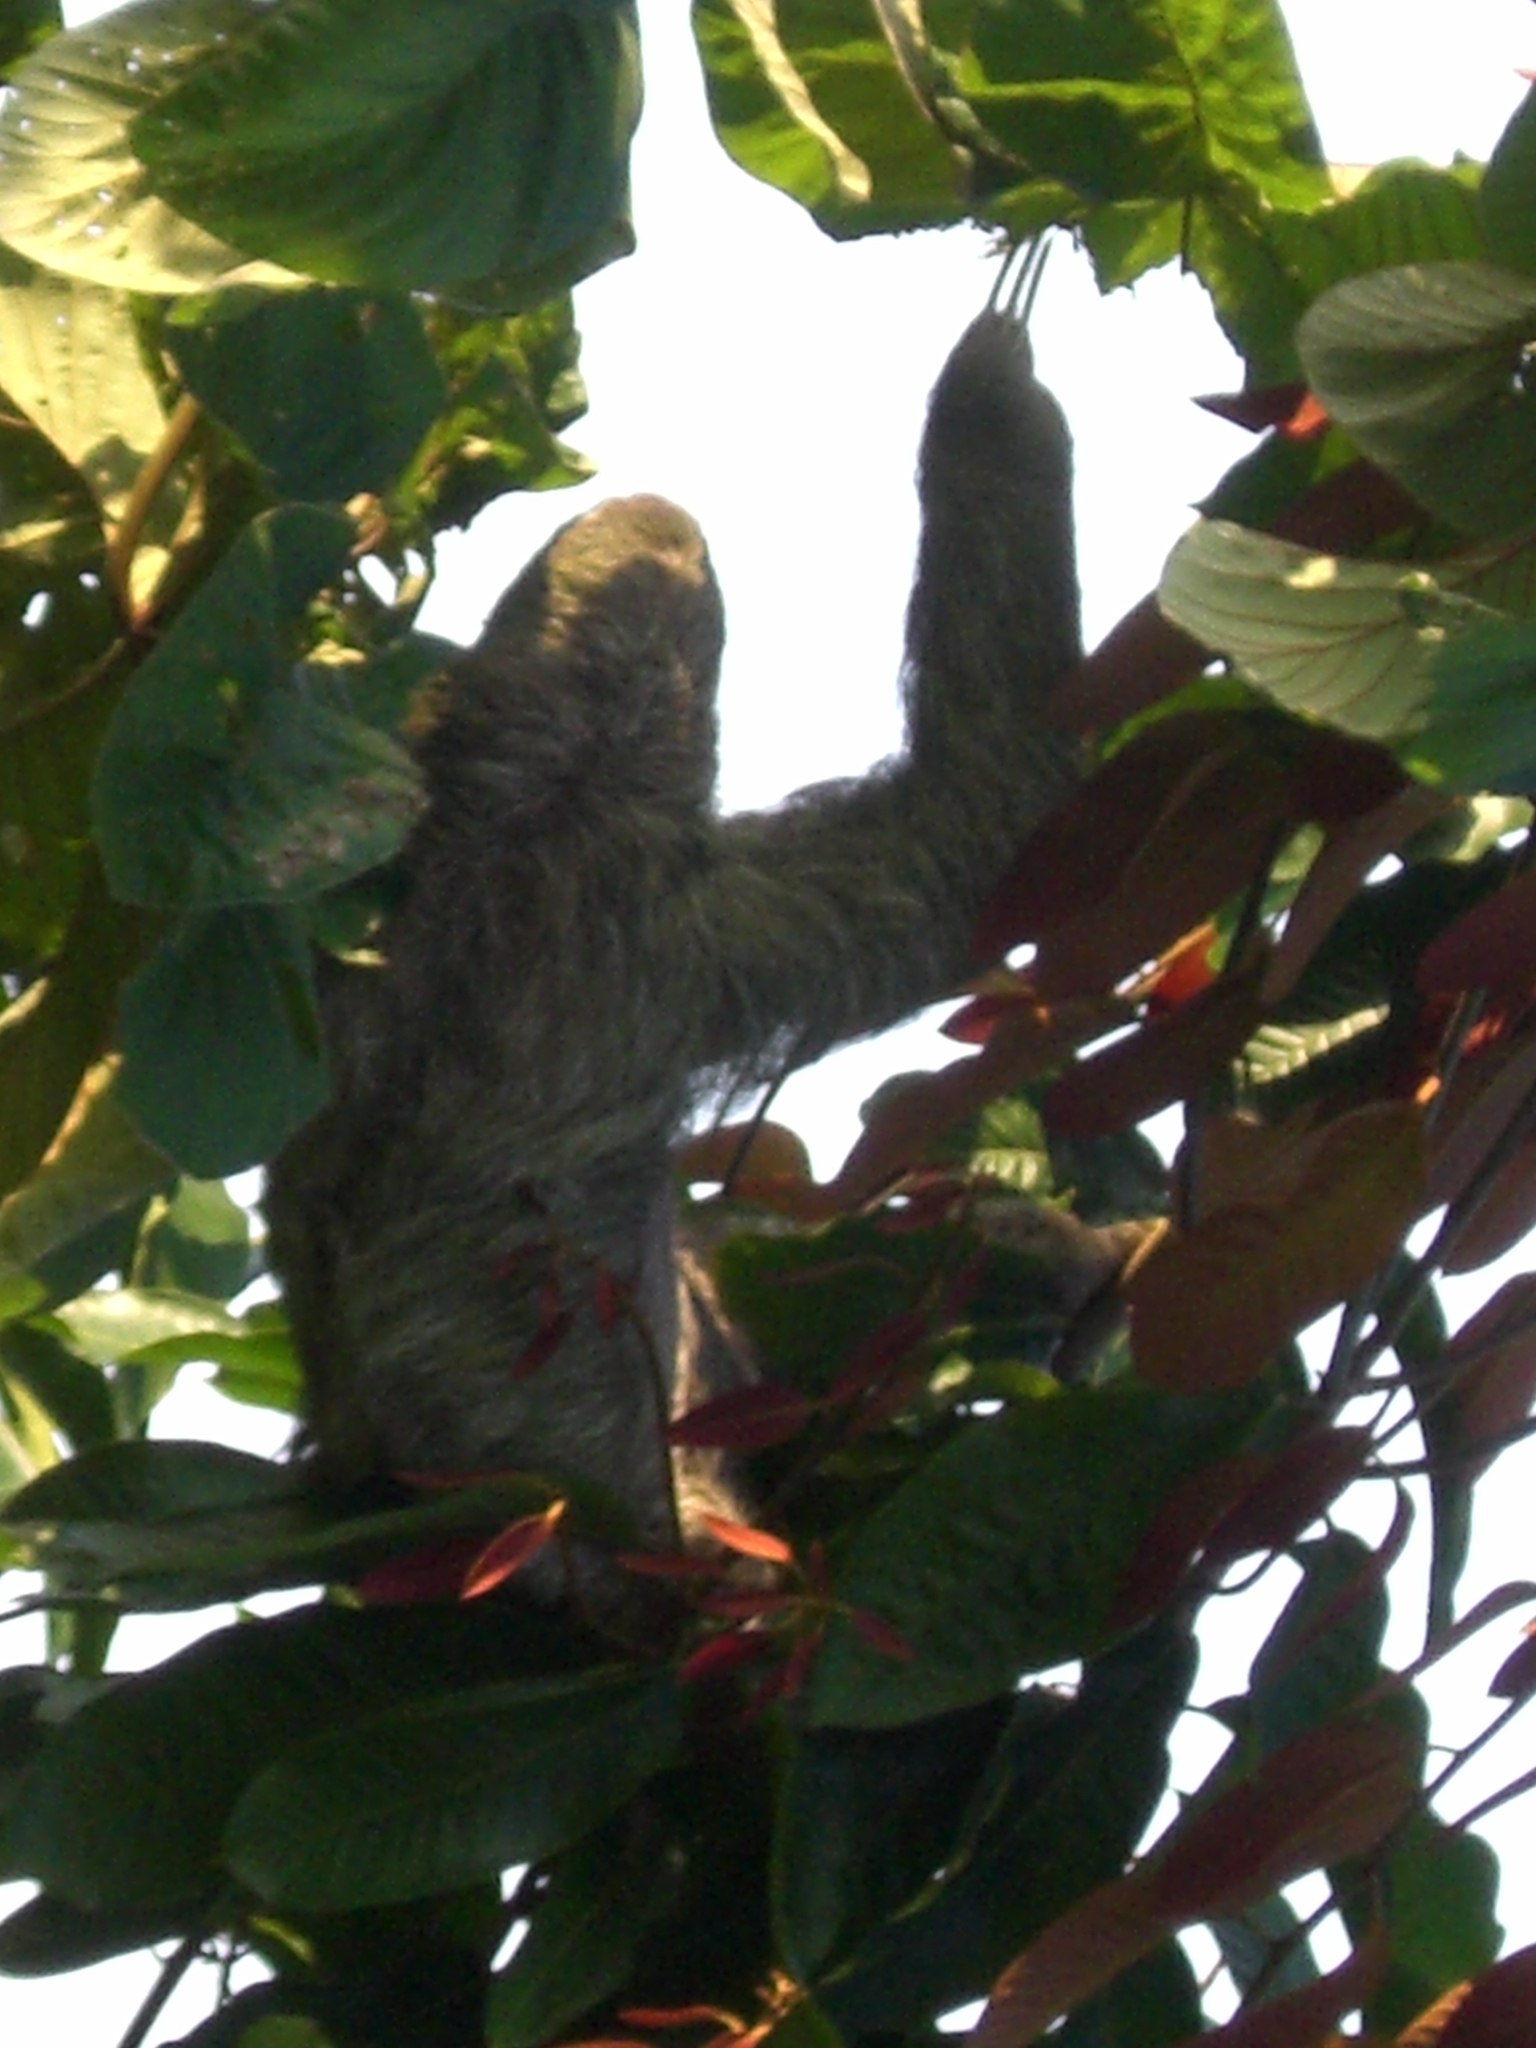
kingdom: Animalia
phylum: Chordata
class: Mammalia
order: Pilosa
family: Bradypodidae
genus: Bradypus
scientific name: Bradypus variegatus
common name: Brown-throated three-toed sloth
